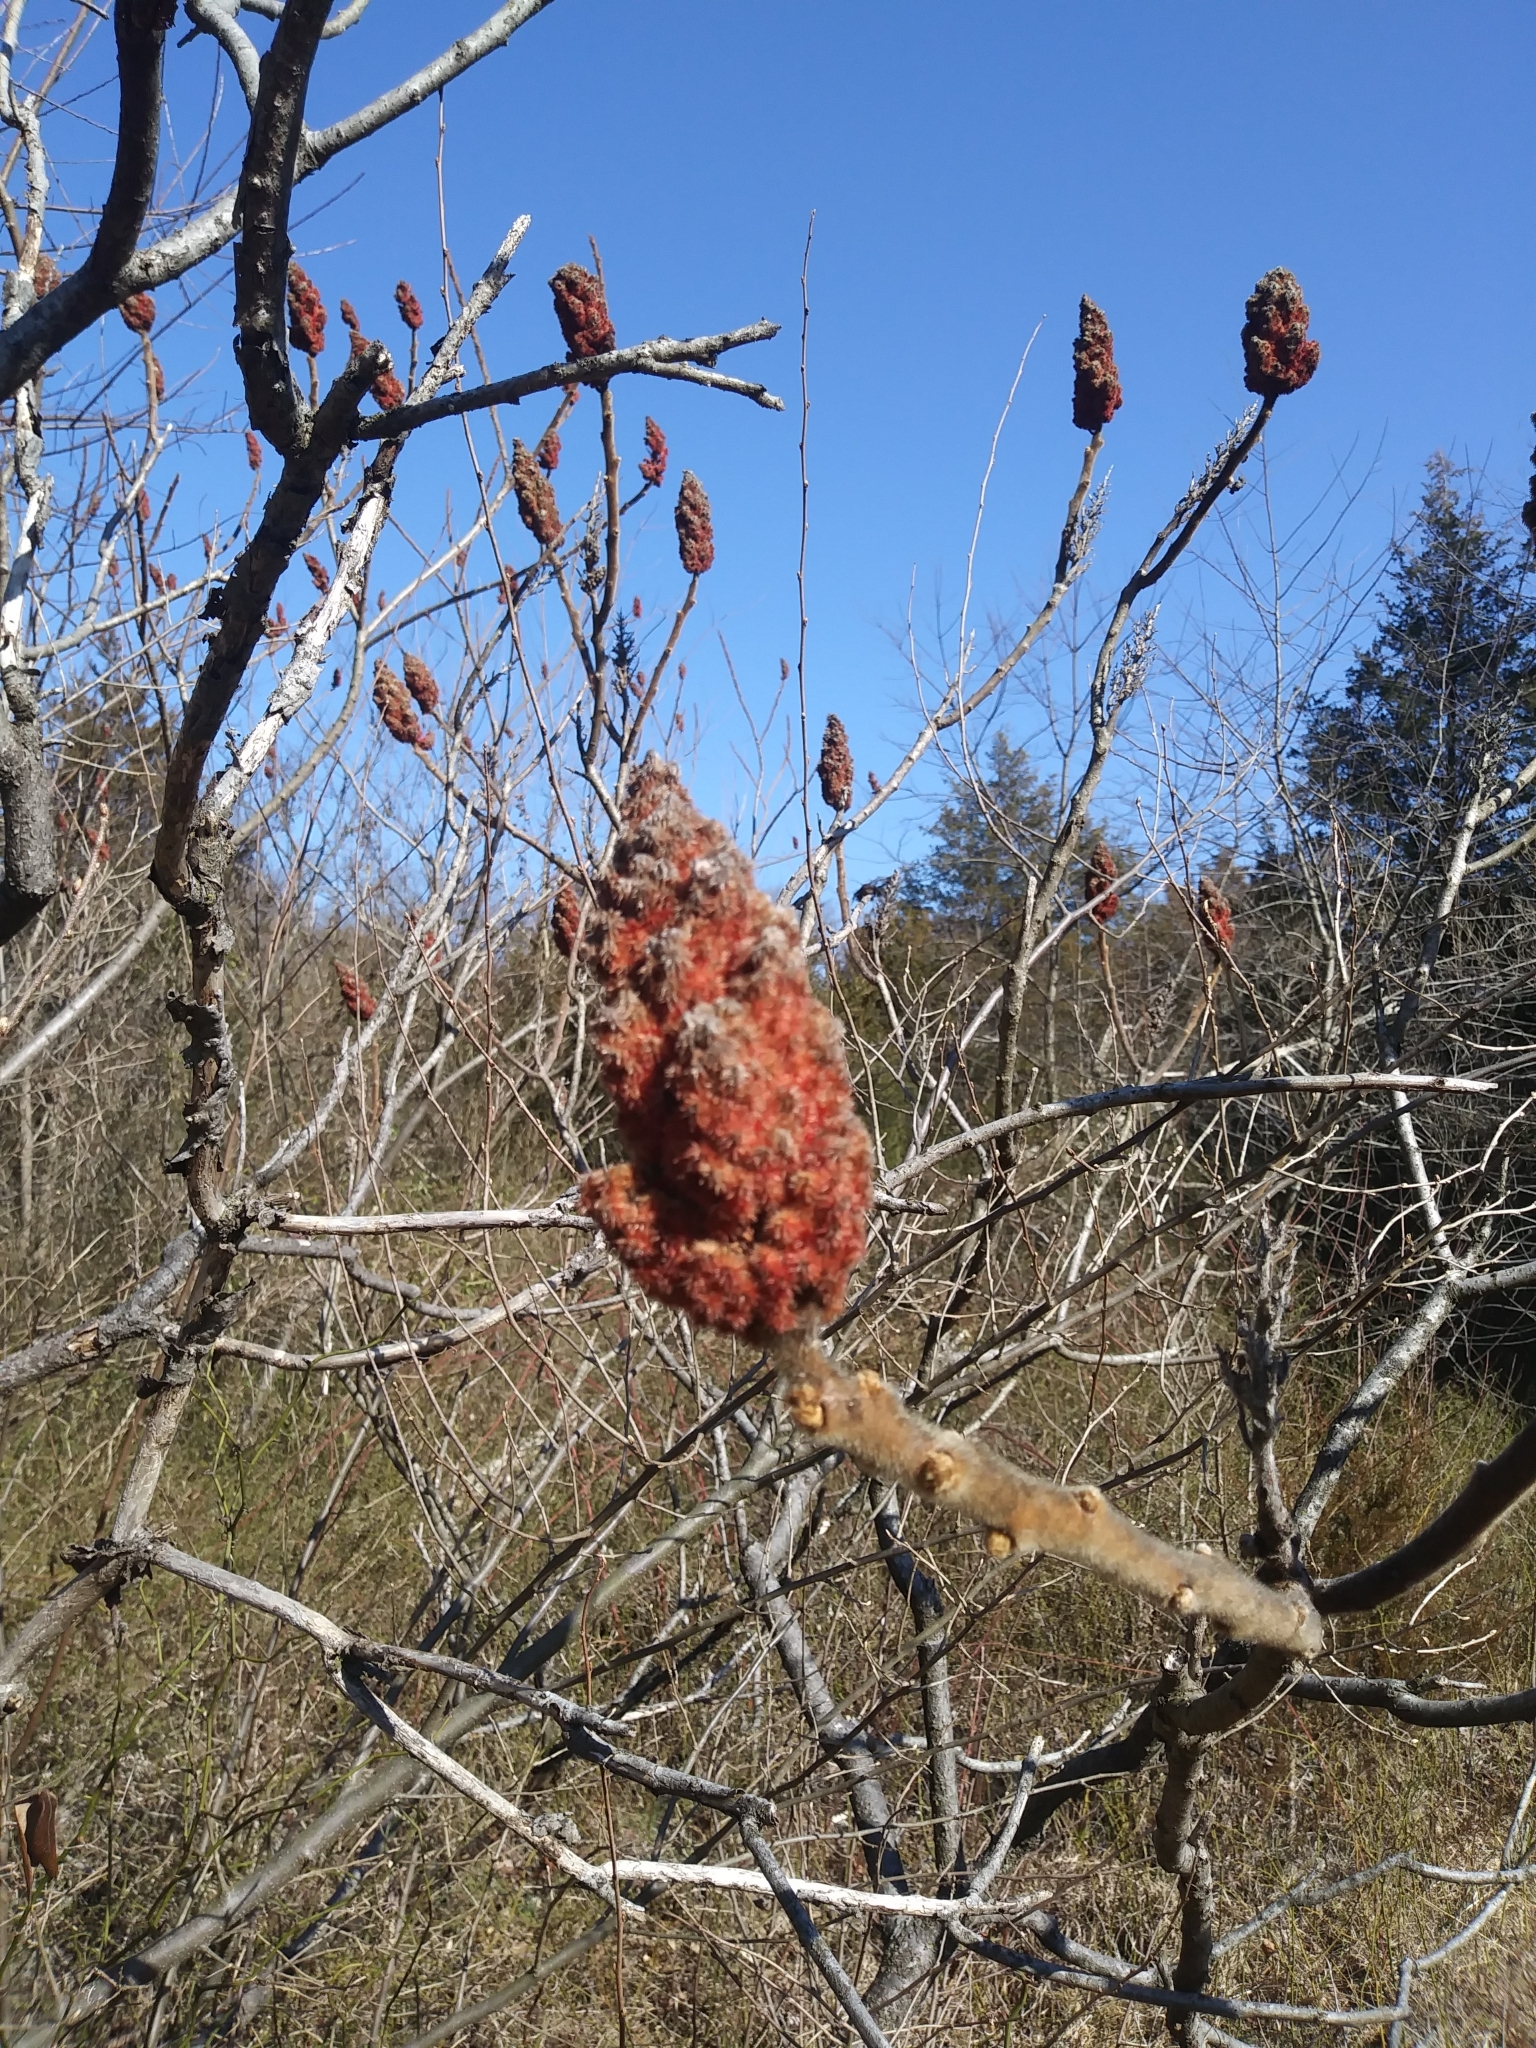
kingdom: Plantae
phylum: Tracheophyta
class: Magnoliopsida
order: Sapindales
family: Anacardiaceae
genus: Rhus
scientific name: Rhus typhina
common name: Staghorn sumac
